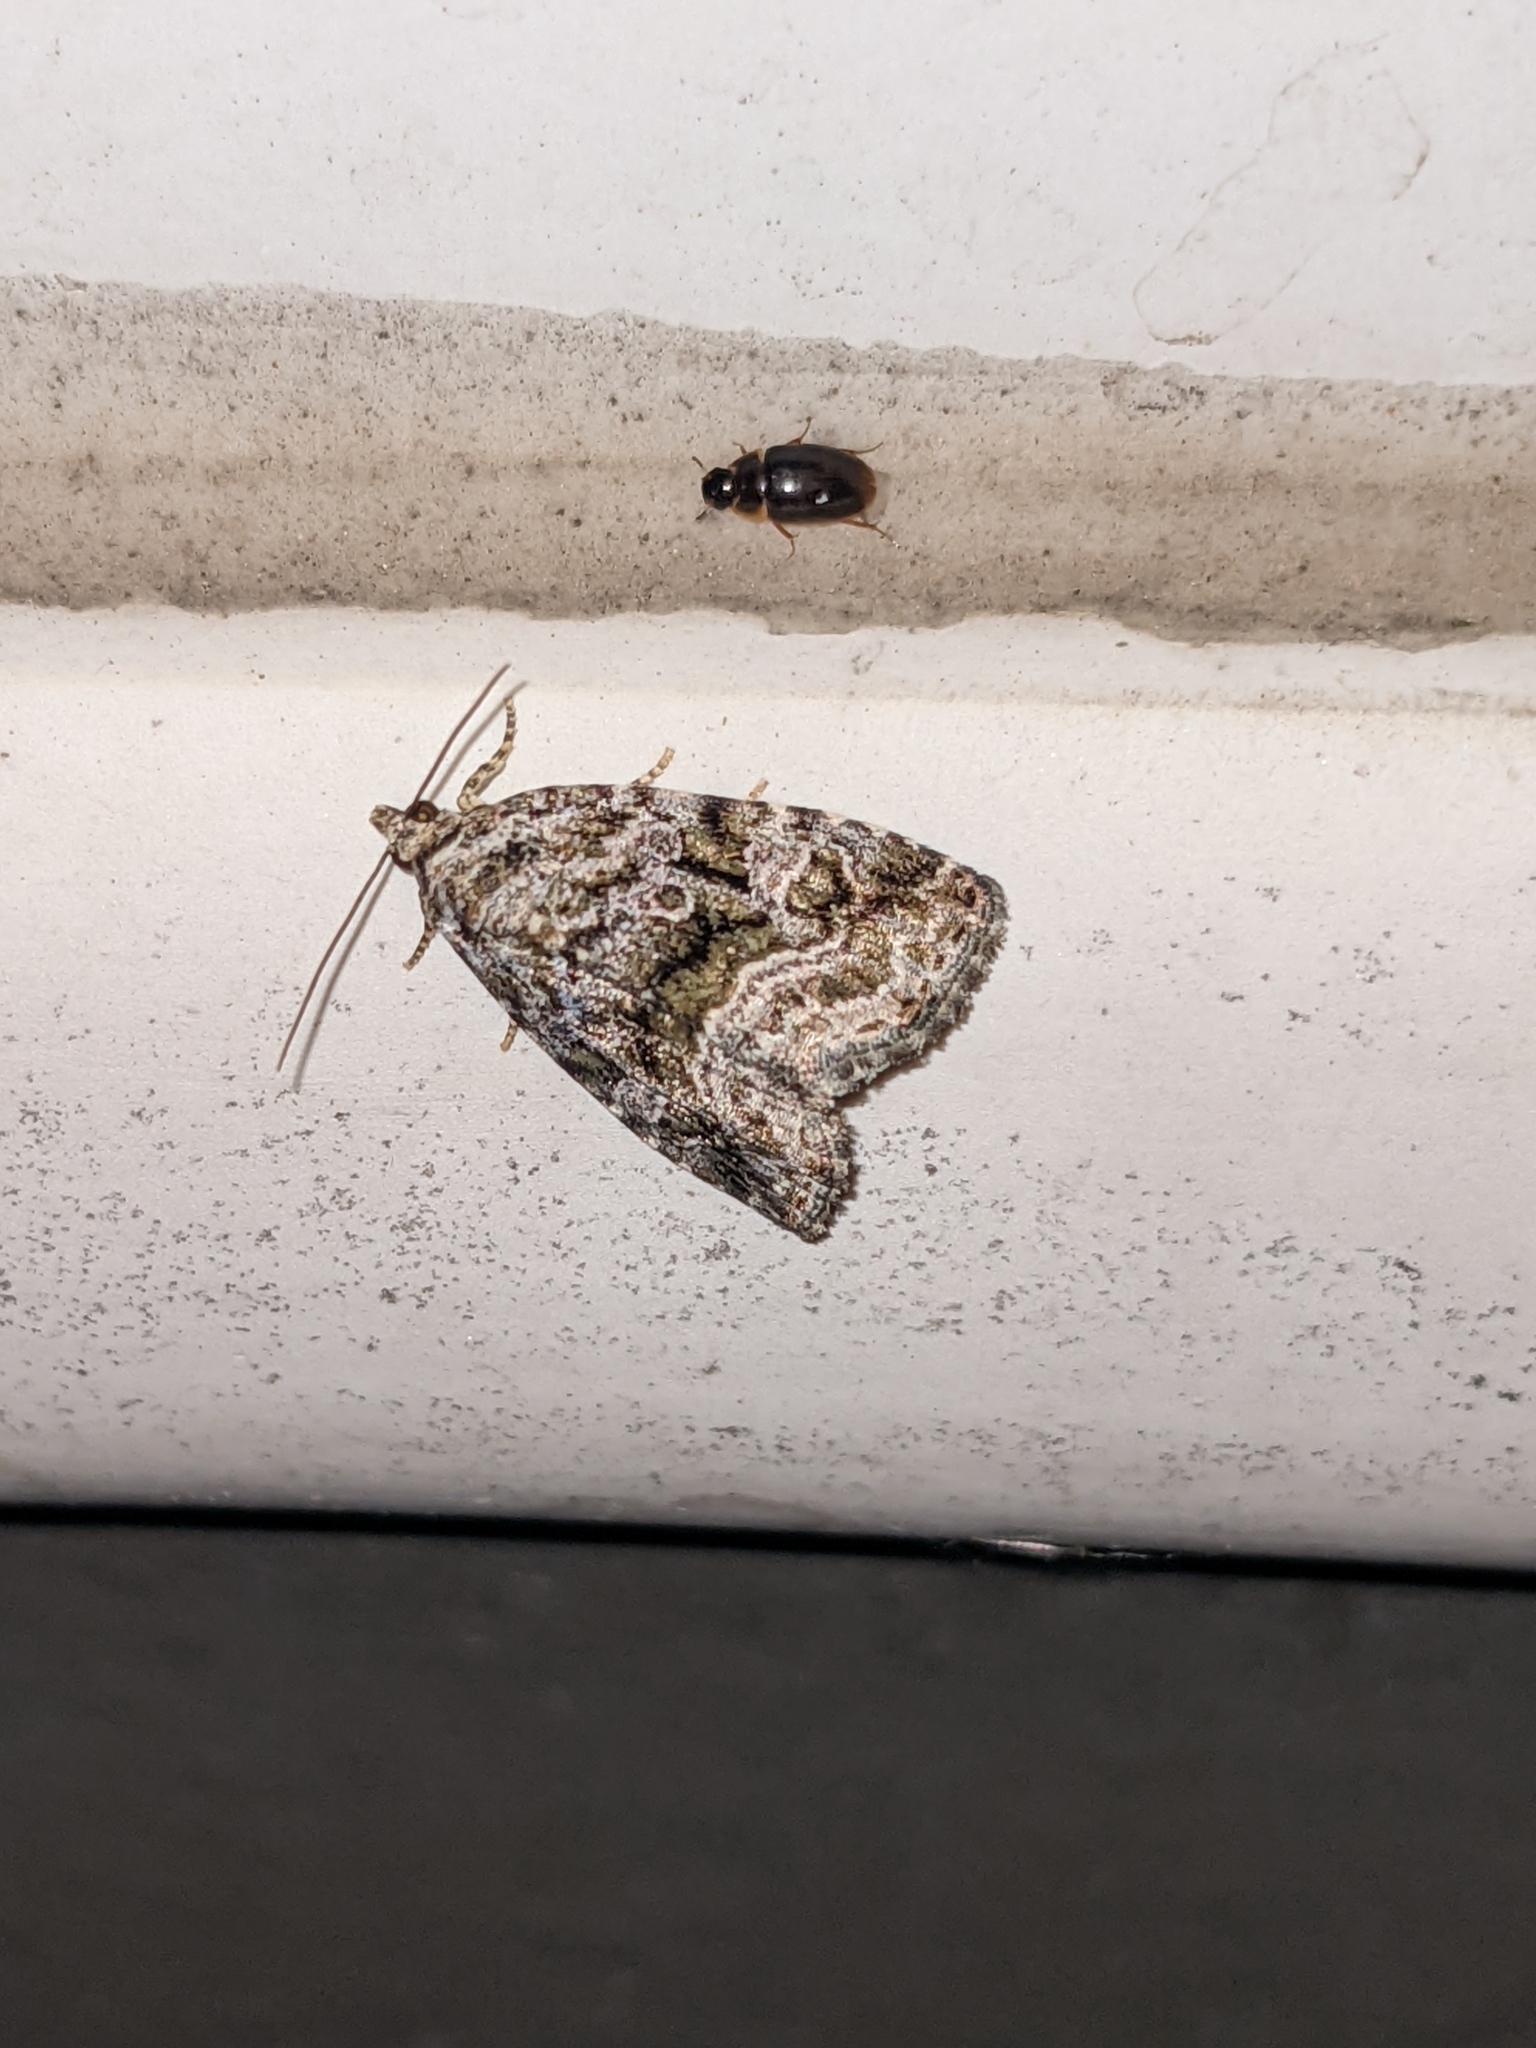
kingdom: Animalia
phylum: Arthropoda
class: Insecta
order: Lepidoptera
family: Noctuidae
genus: Protodeltote
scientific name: Protodeltote muscosula
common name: Large mossy glyph
